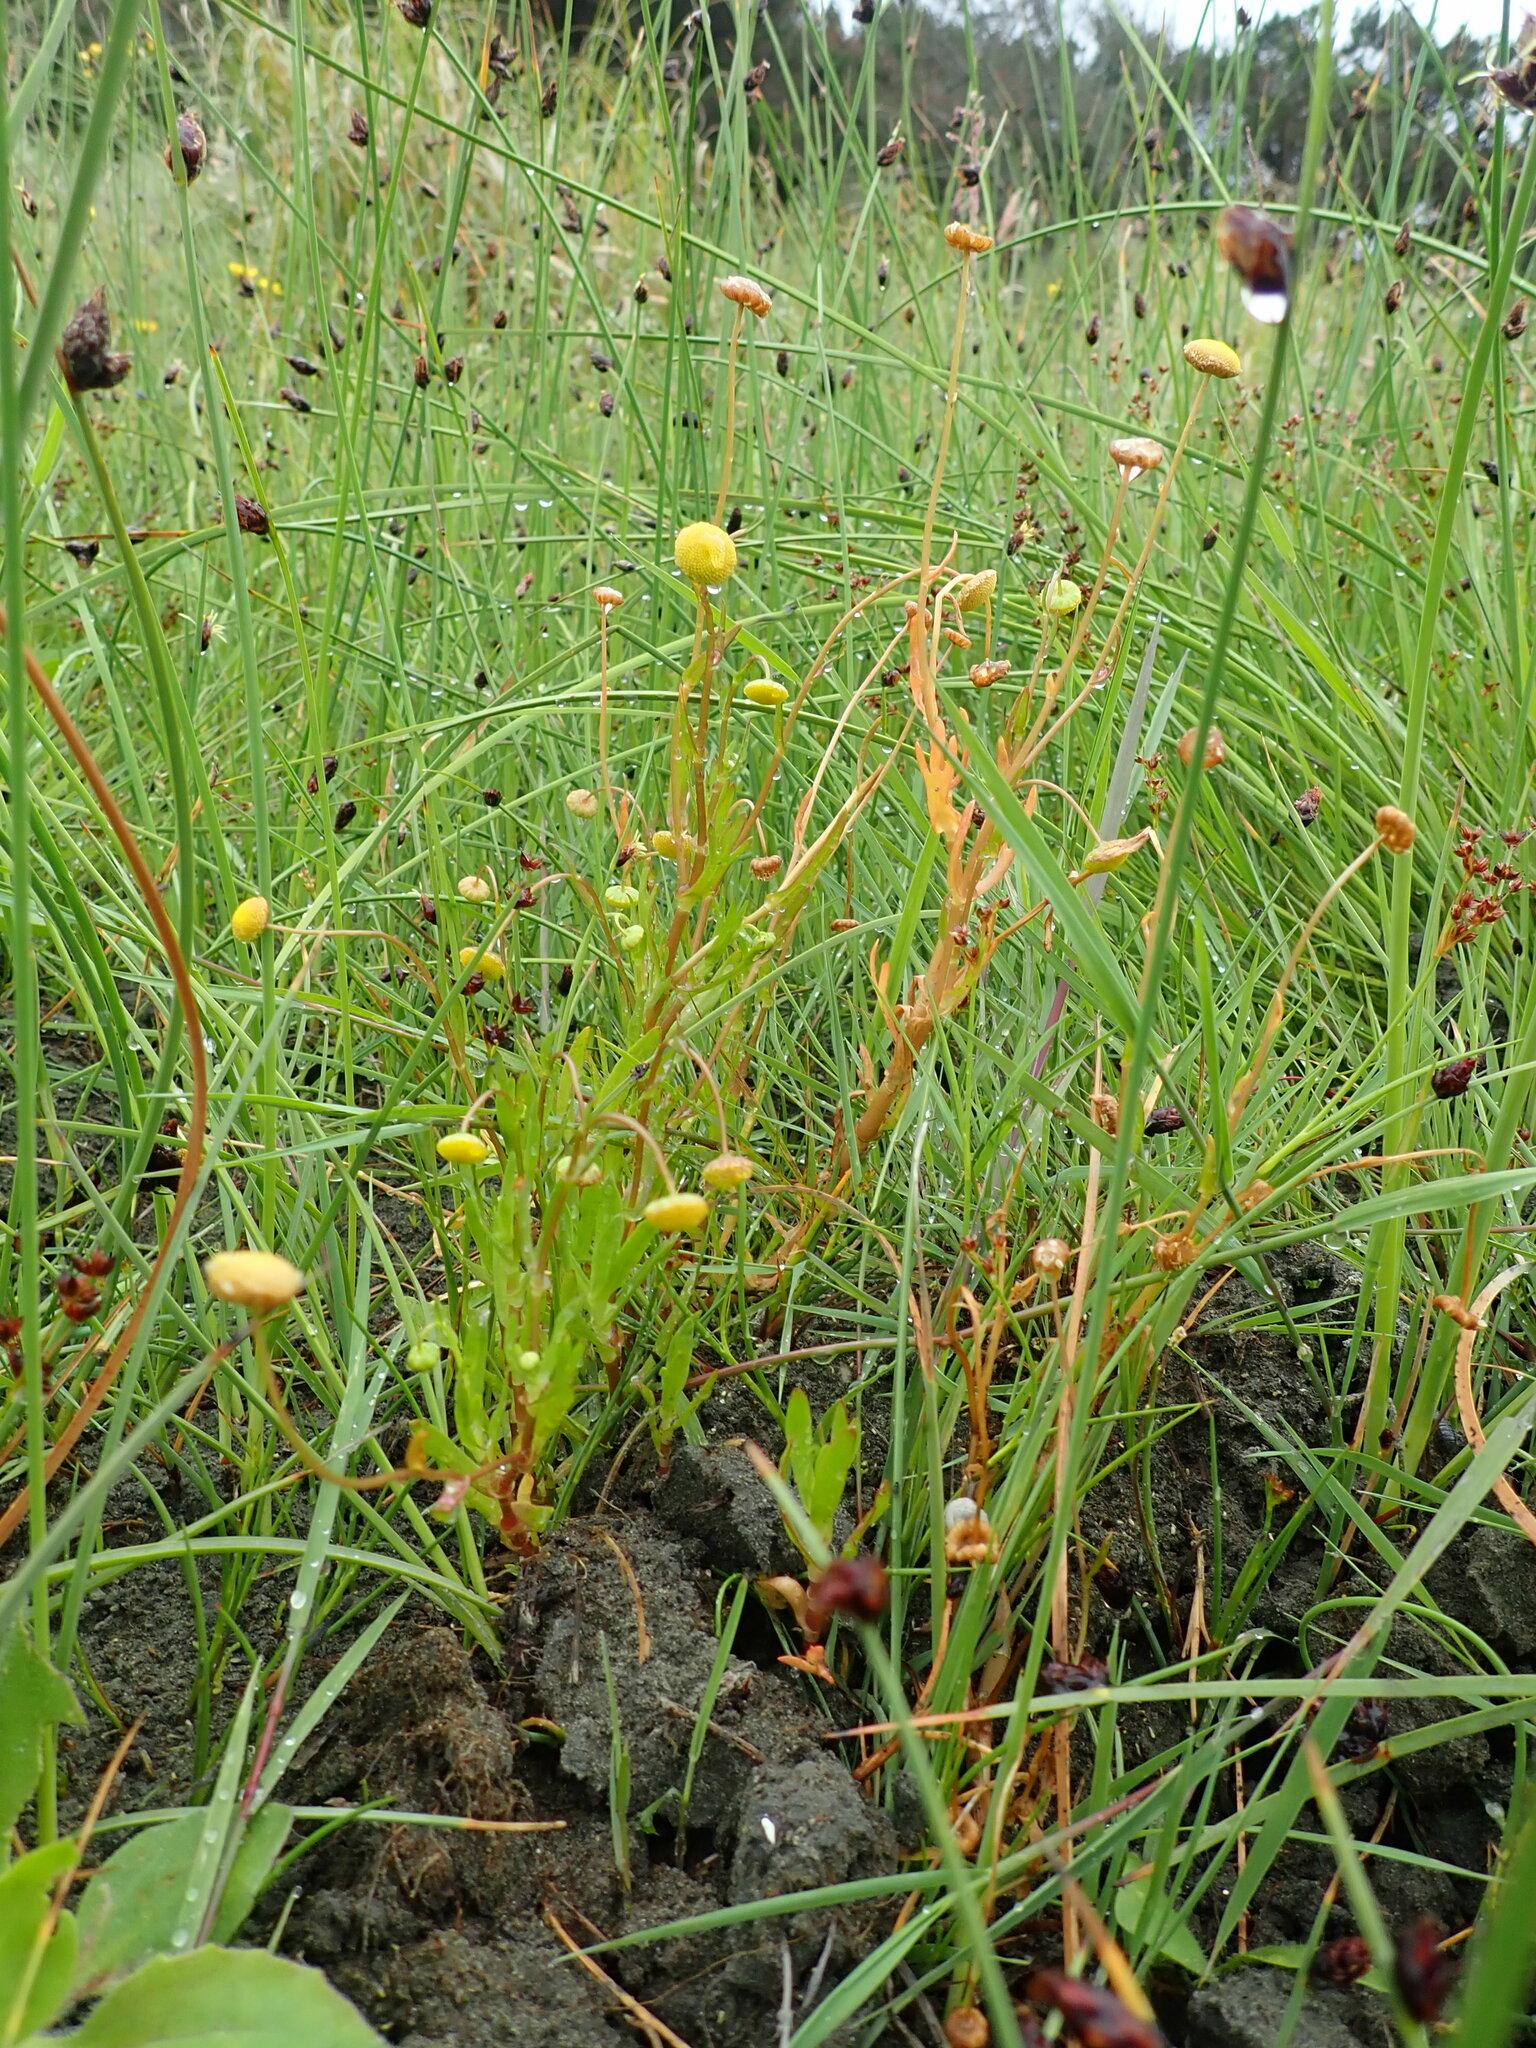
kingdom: Plantae
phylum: Tracheophyta
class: Magnoliopsida
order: Asterales
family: Asteraceae
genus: Cotula
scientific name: Cotula coronopifolia
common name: Buttonweed
